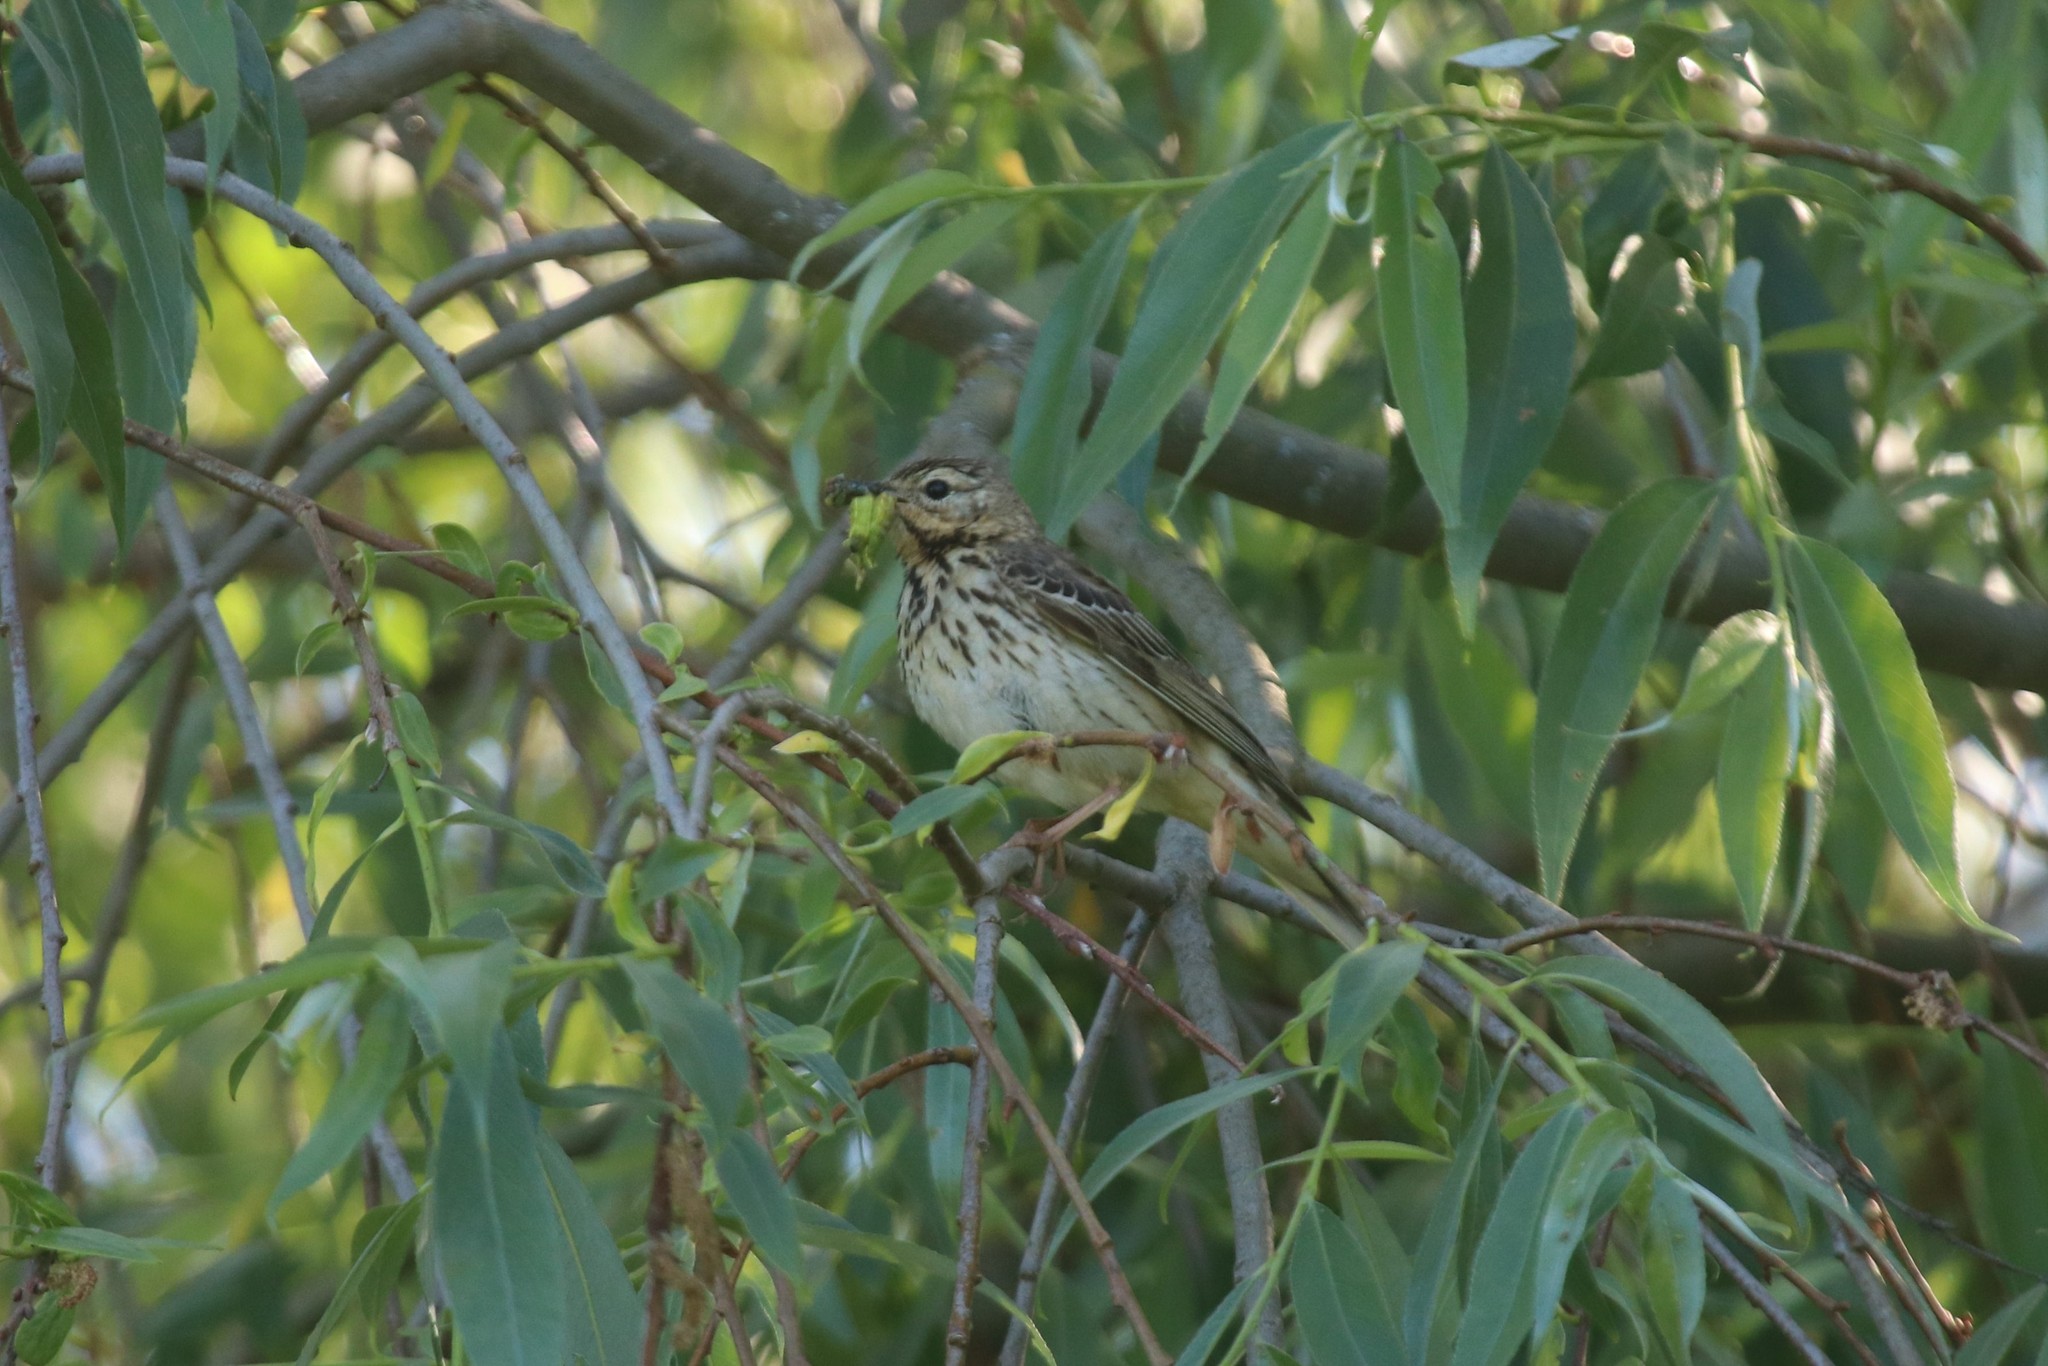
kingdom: Animalia
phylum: Chordata
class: Aves
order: Passeriformes
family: Motacillidae
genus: Anthus
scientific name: Anthus trivialis
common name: Tree pipit
